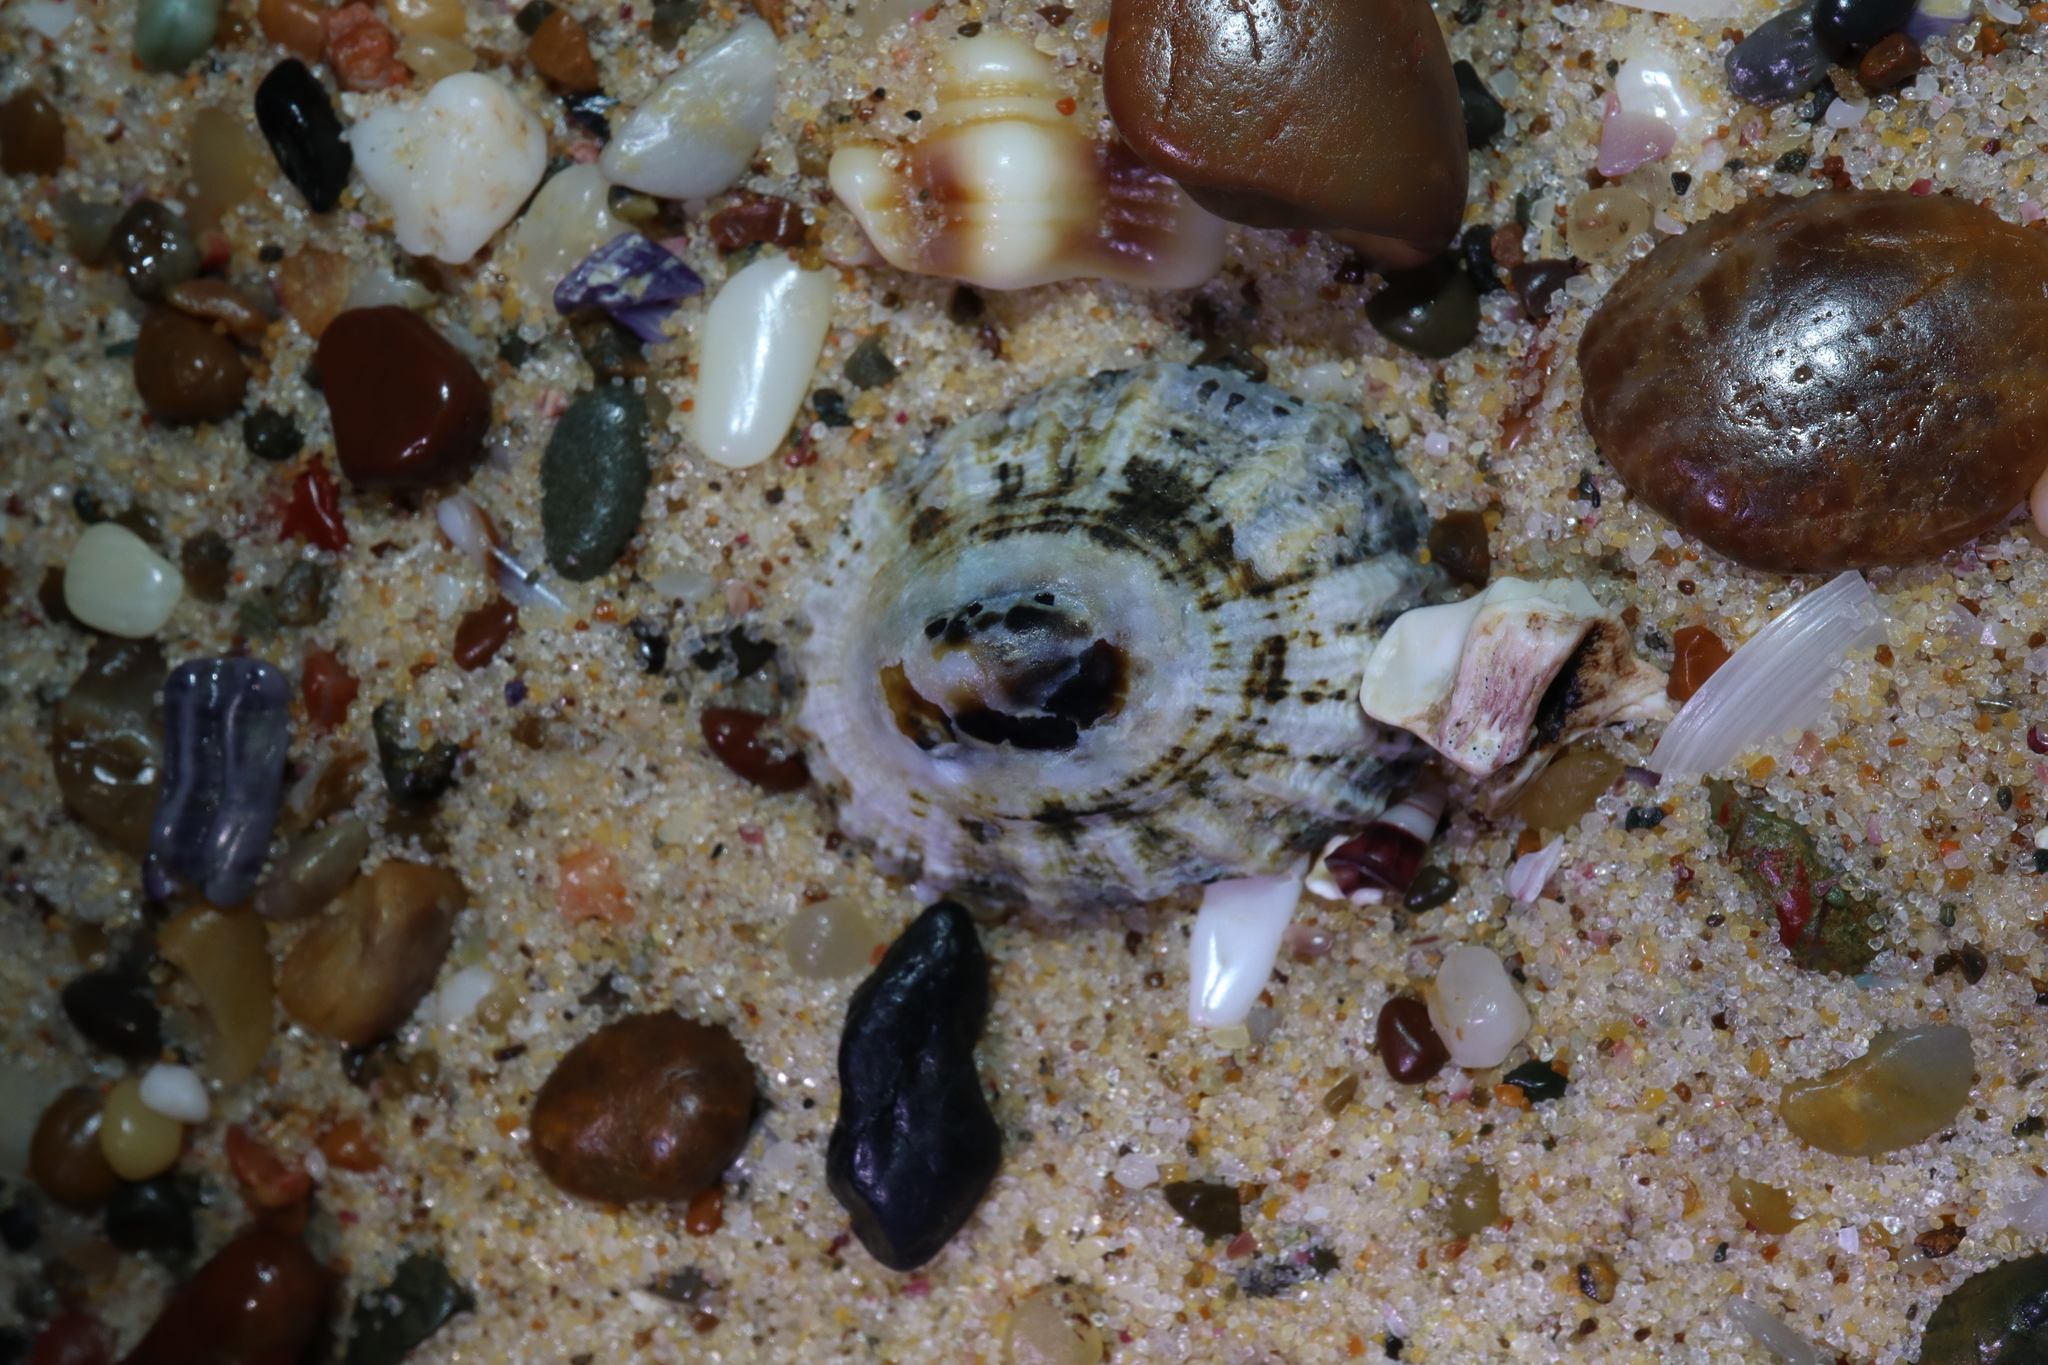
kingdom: Animalia
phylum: Mollusca
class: Gastropoda
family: Patellidae
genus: Scutellastra
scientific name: Scutellastra peronii
